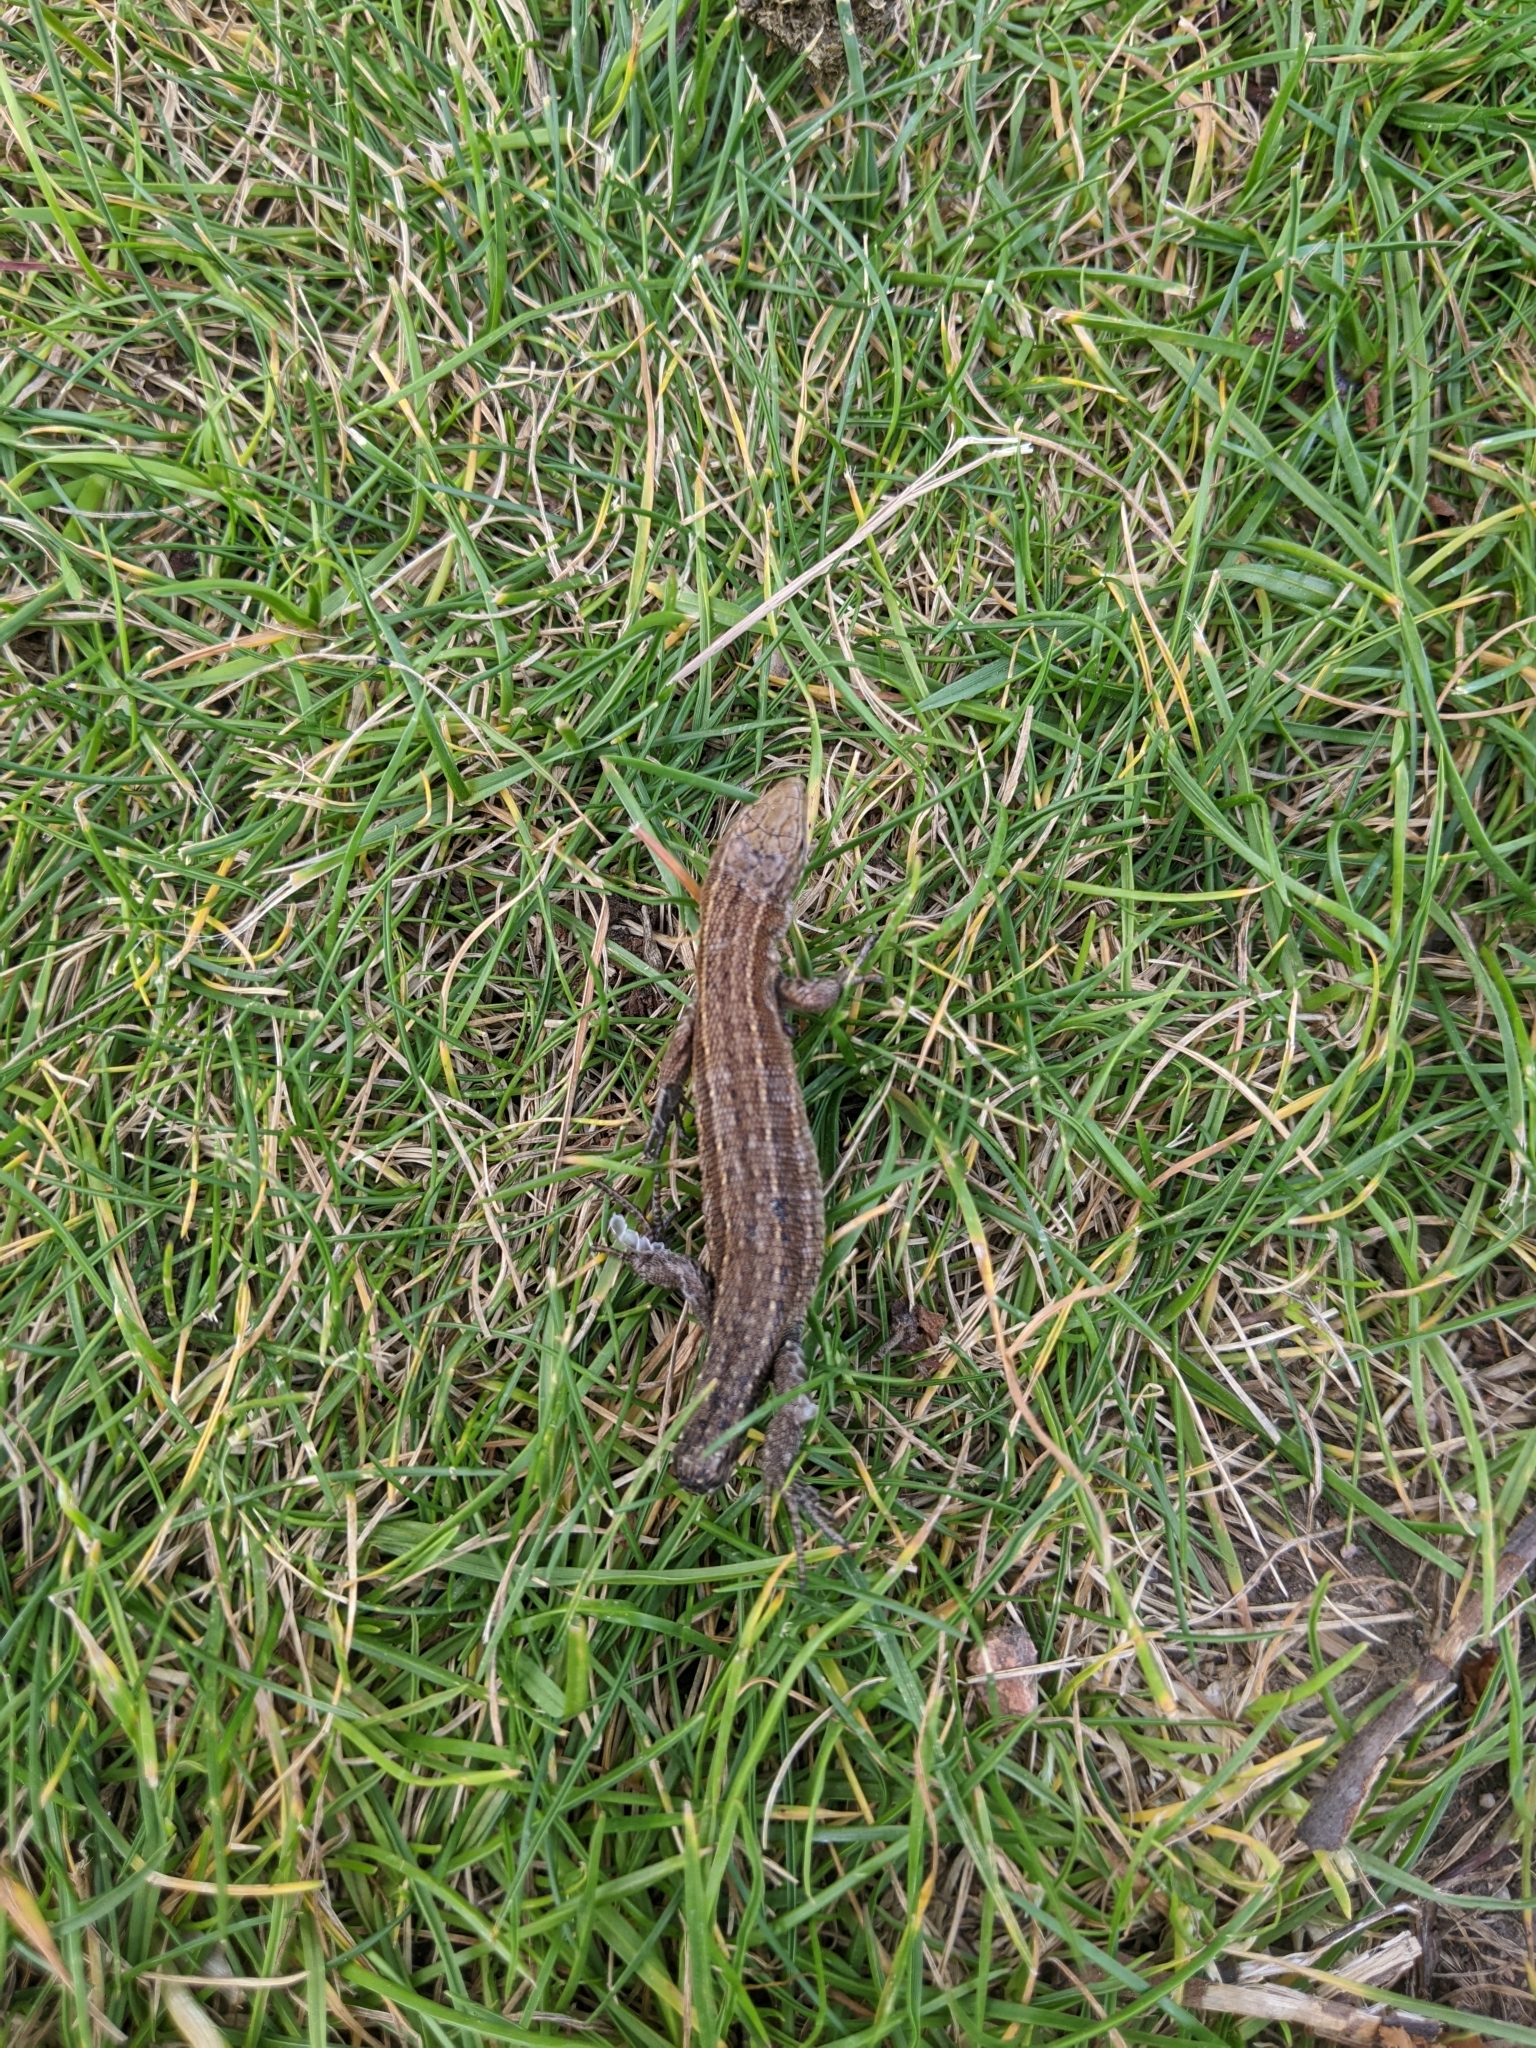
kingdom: Animalia
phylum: Chordata
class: Squamata
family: Lacertidae
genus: Zootoca
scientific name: Zootoca vivipara
